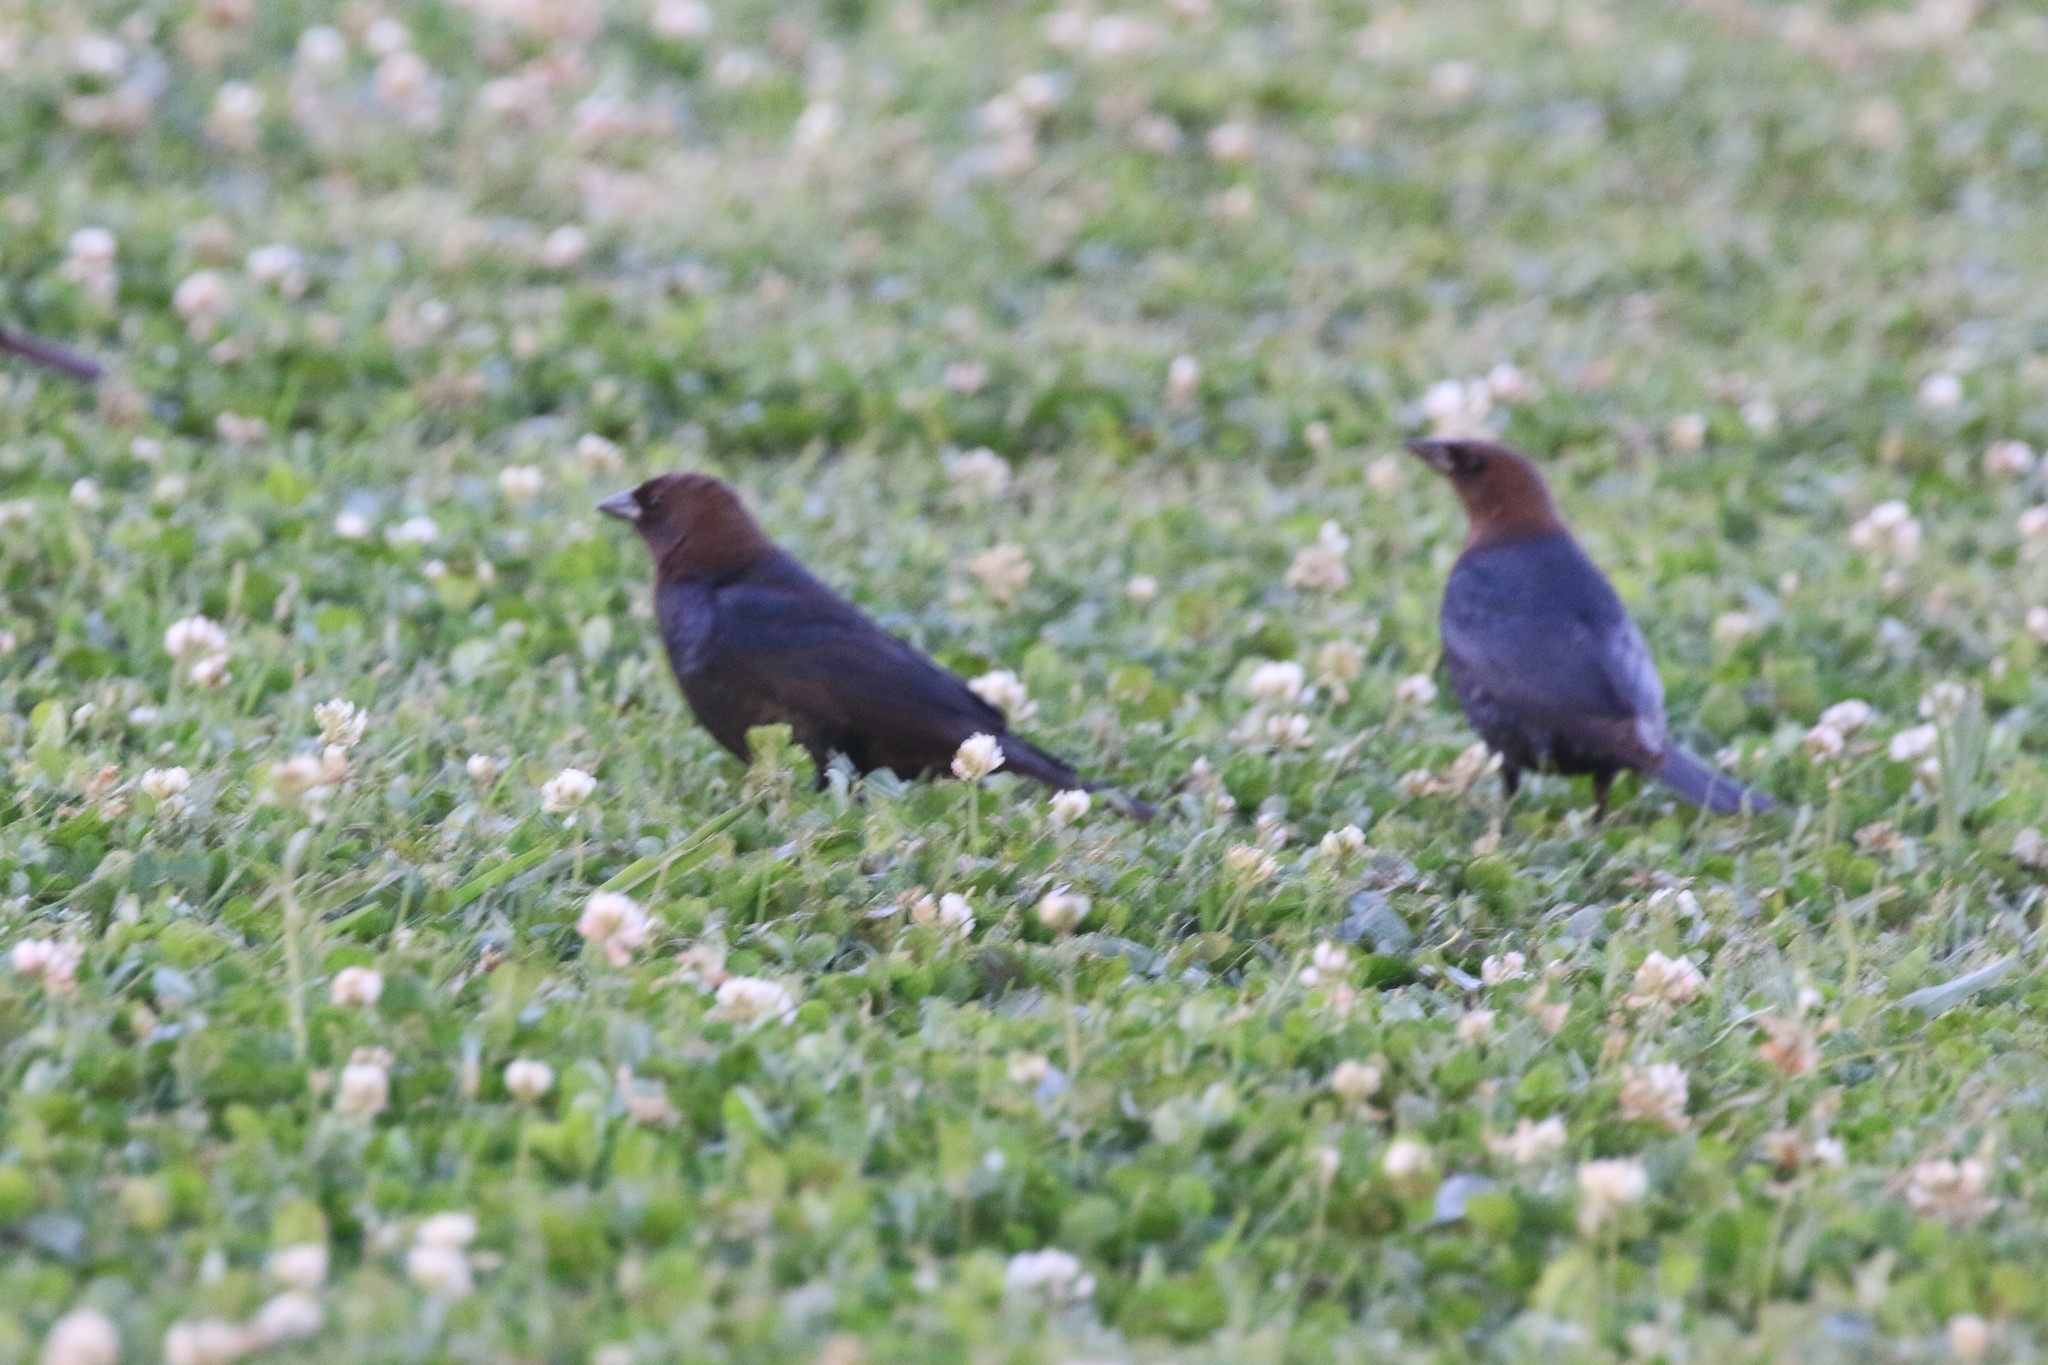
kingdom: Animalia
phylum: Chordata
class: Aves
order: Passeriformes
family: Icteridae
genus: Molothrus
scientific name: Molothrus ater
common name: Brown-headed cowbird
